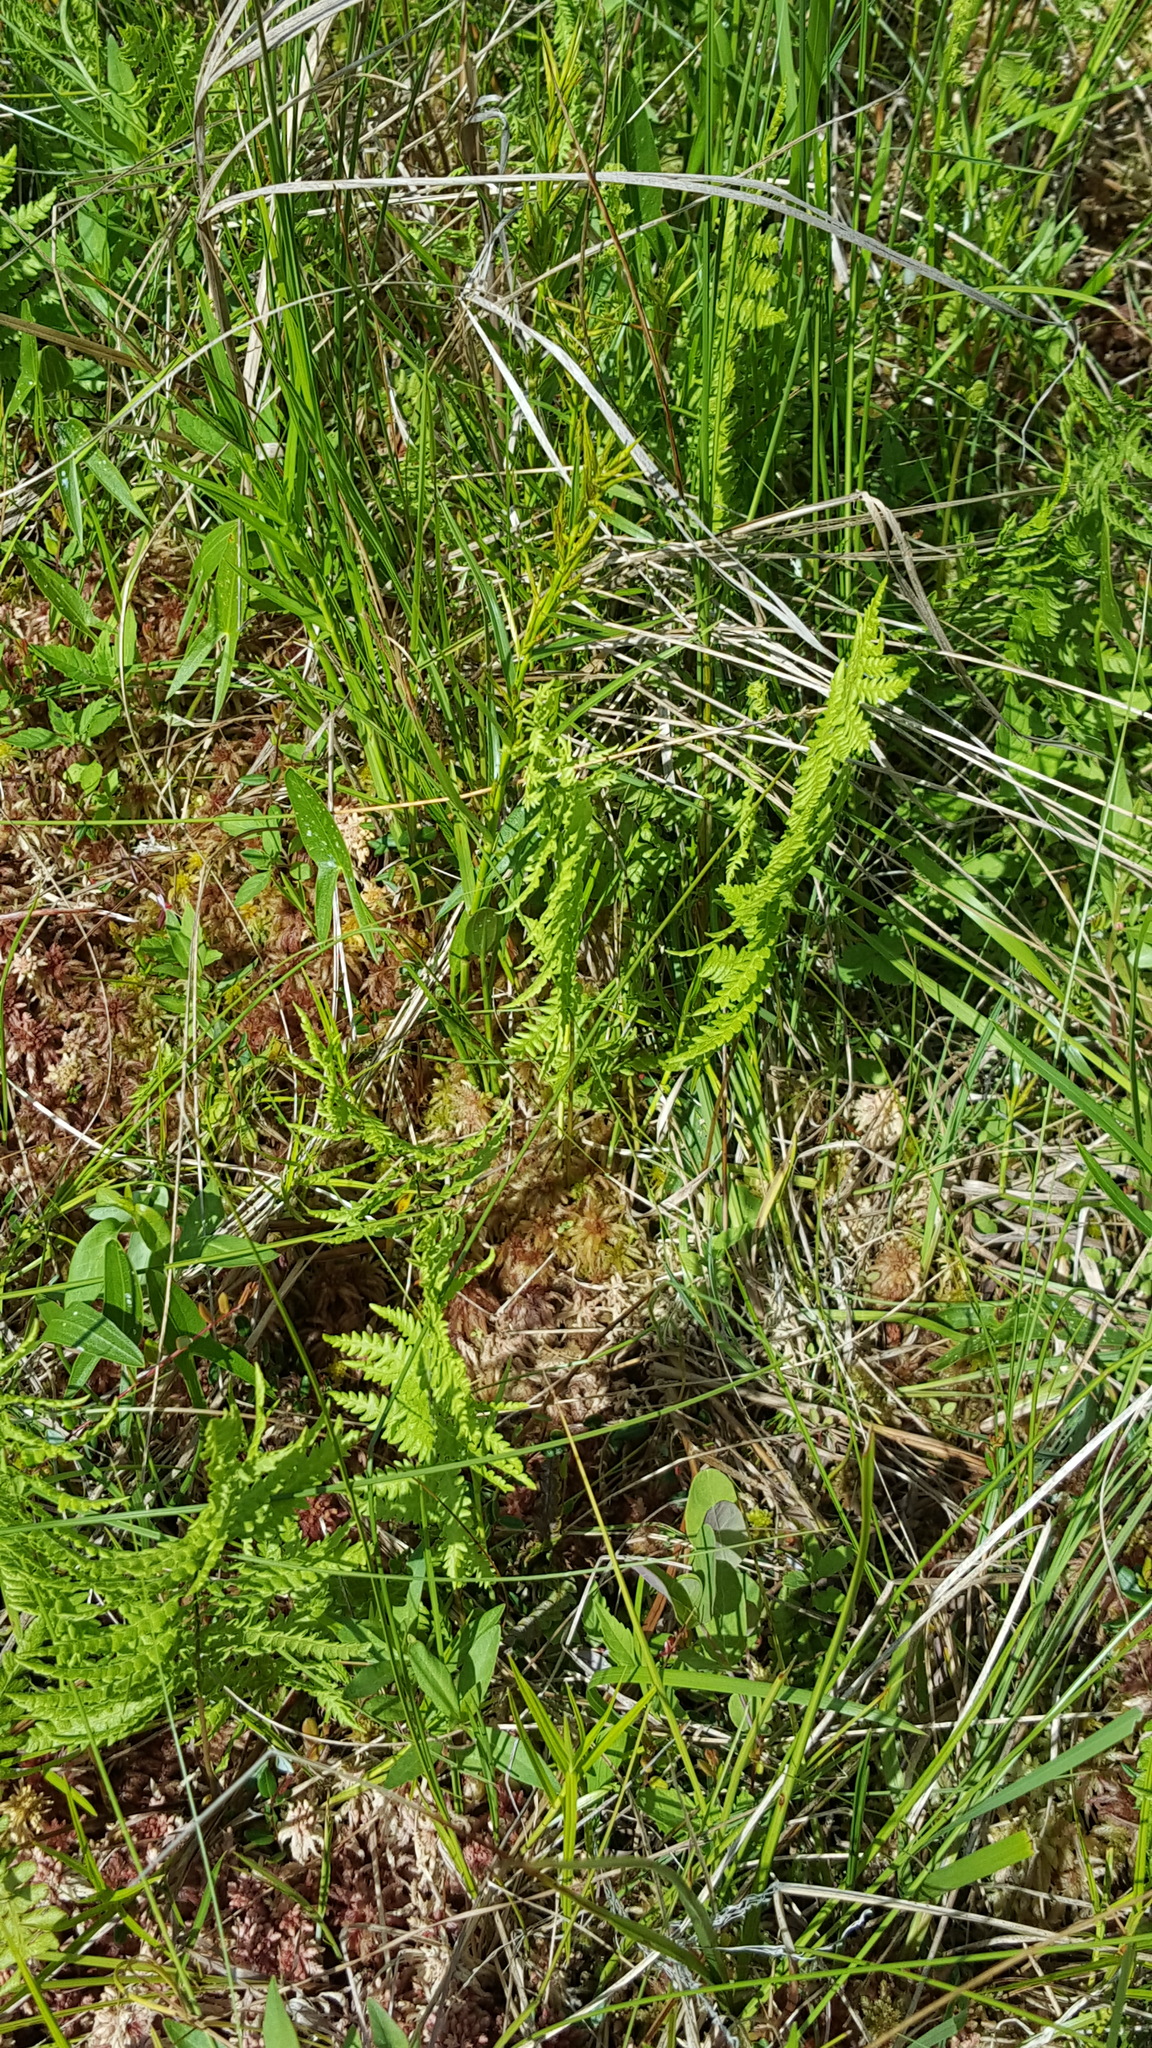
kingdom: Plantae
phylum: Tracheophyta
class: Polypodiopsida
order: Polypodiales
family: Thelypteridaceae
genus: Thelypteris
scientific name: Thelypteris palustris
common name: Marsh fern
